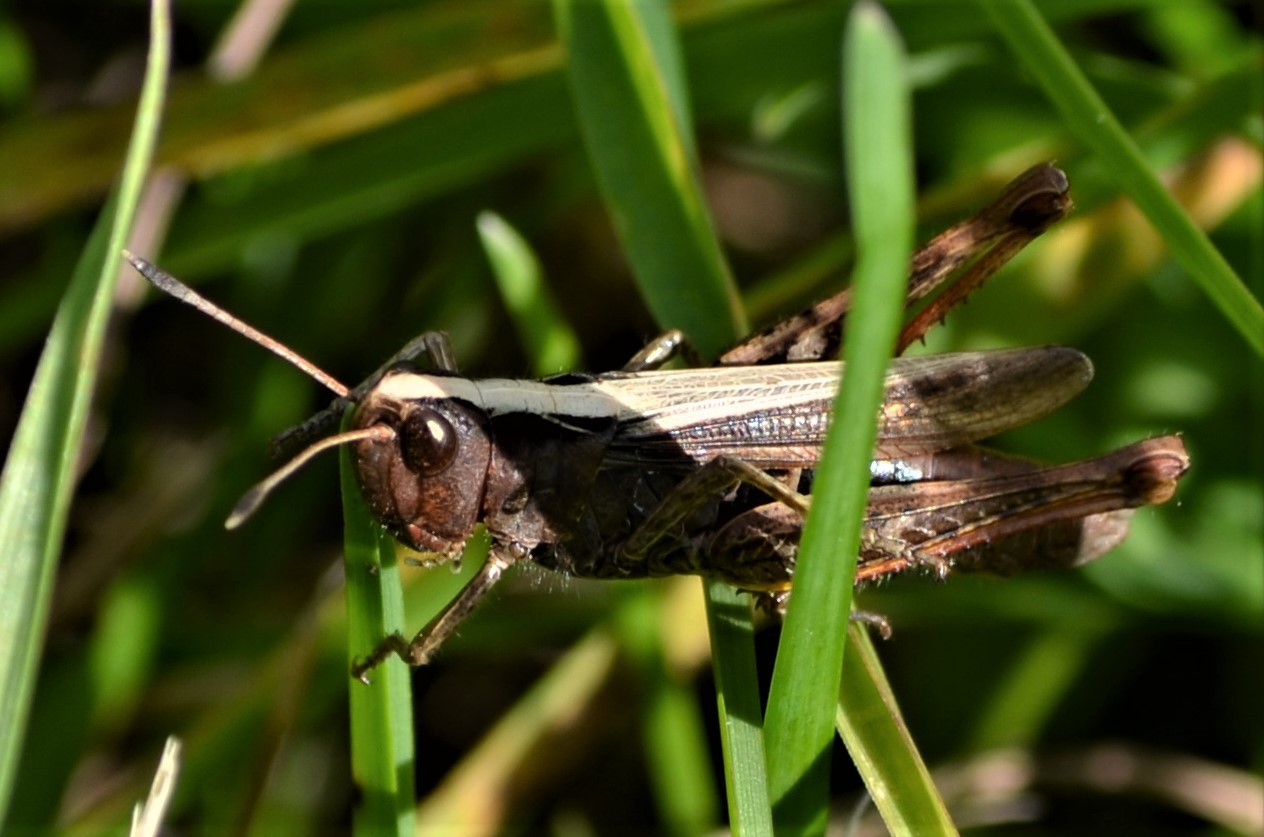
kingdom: Animalia
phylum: Arthropoda
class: Insecta
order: Orthoptera
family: Acrididae
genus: Gomphocerippus
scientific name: Gomphocerippus rufus
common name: Rufous grasshopper
